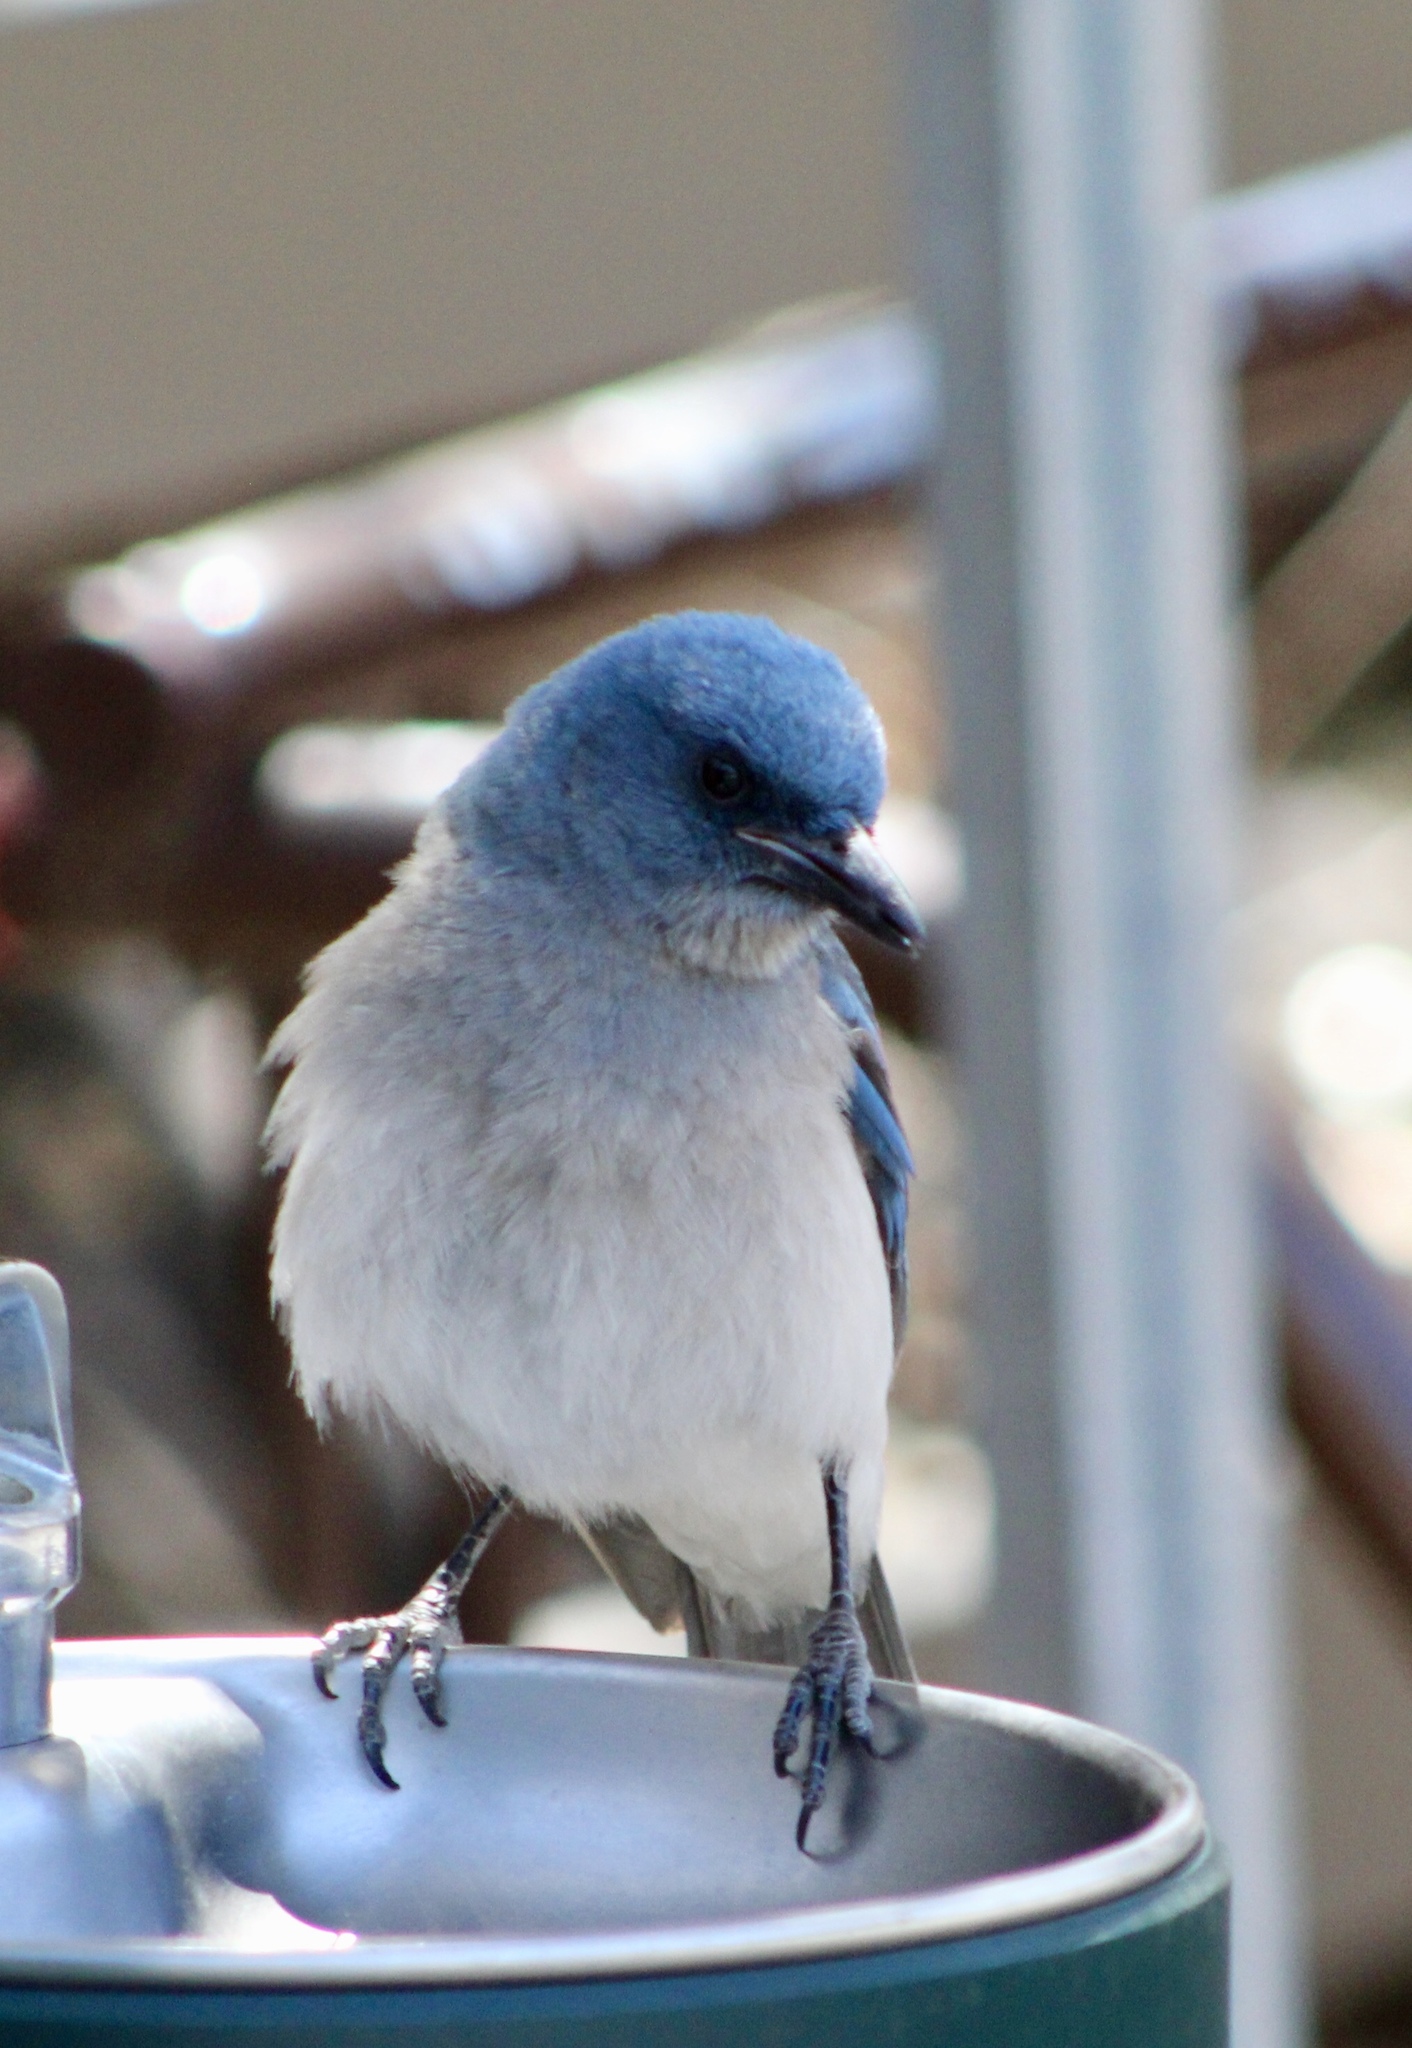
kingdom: Animalia
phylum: Chordata
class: Aves
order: Passeriformes
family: Corvidae
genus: Aphelocoma
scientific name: Aphelocoma wollweberi
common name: Mexican jay
